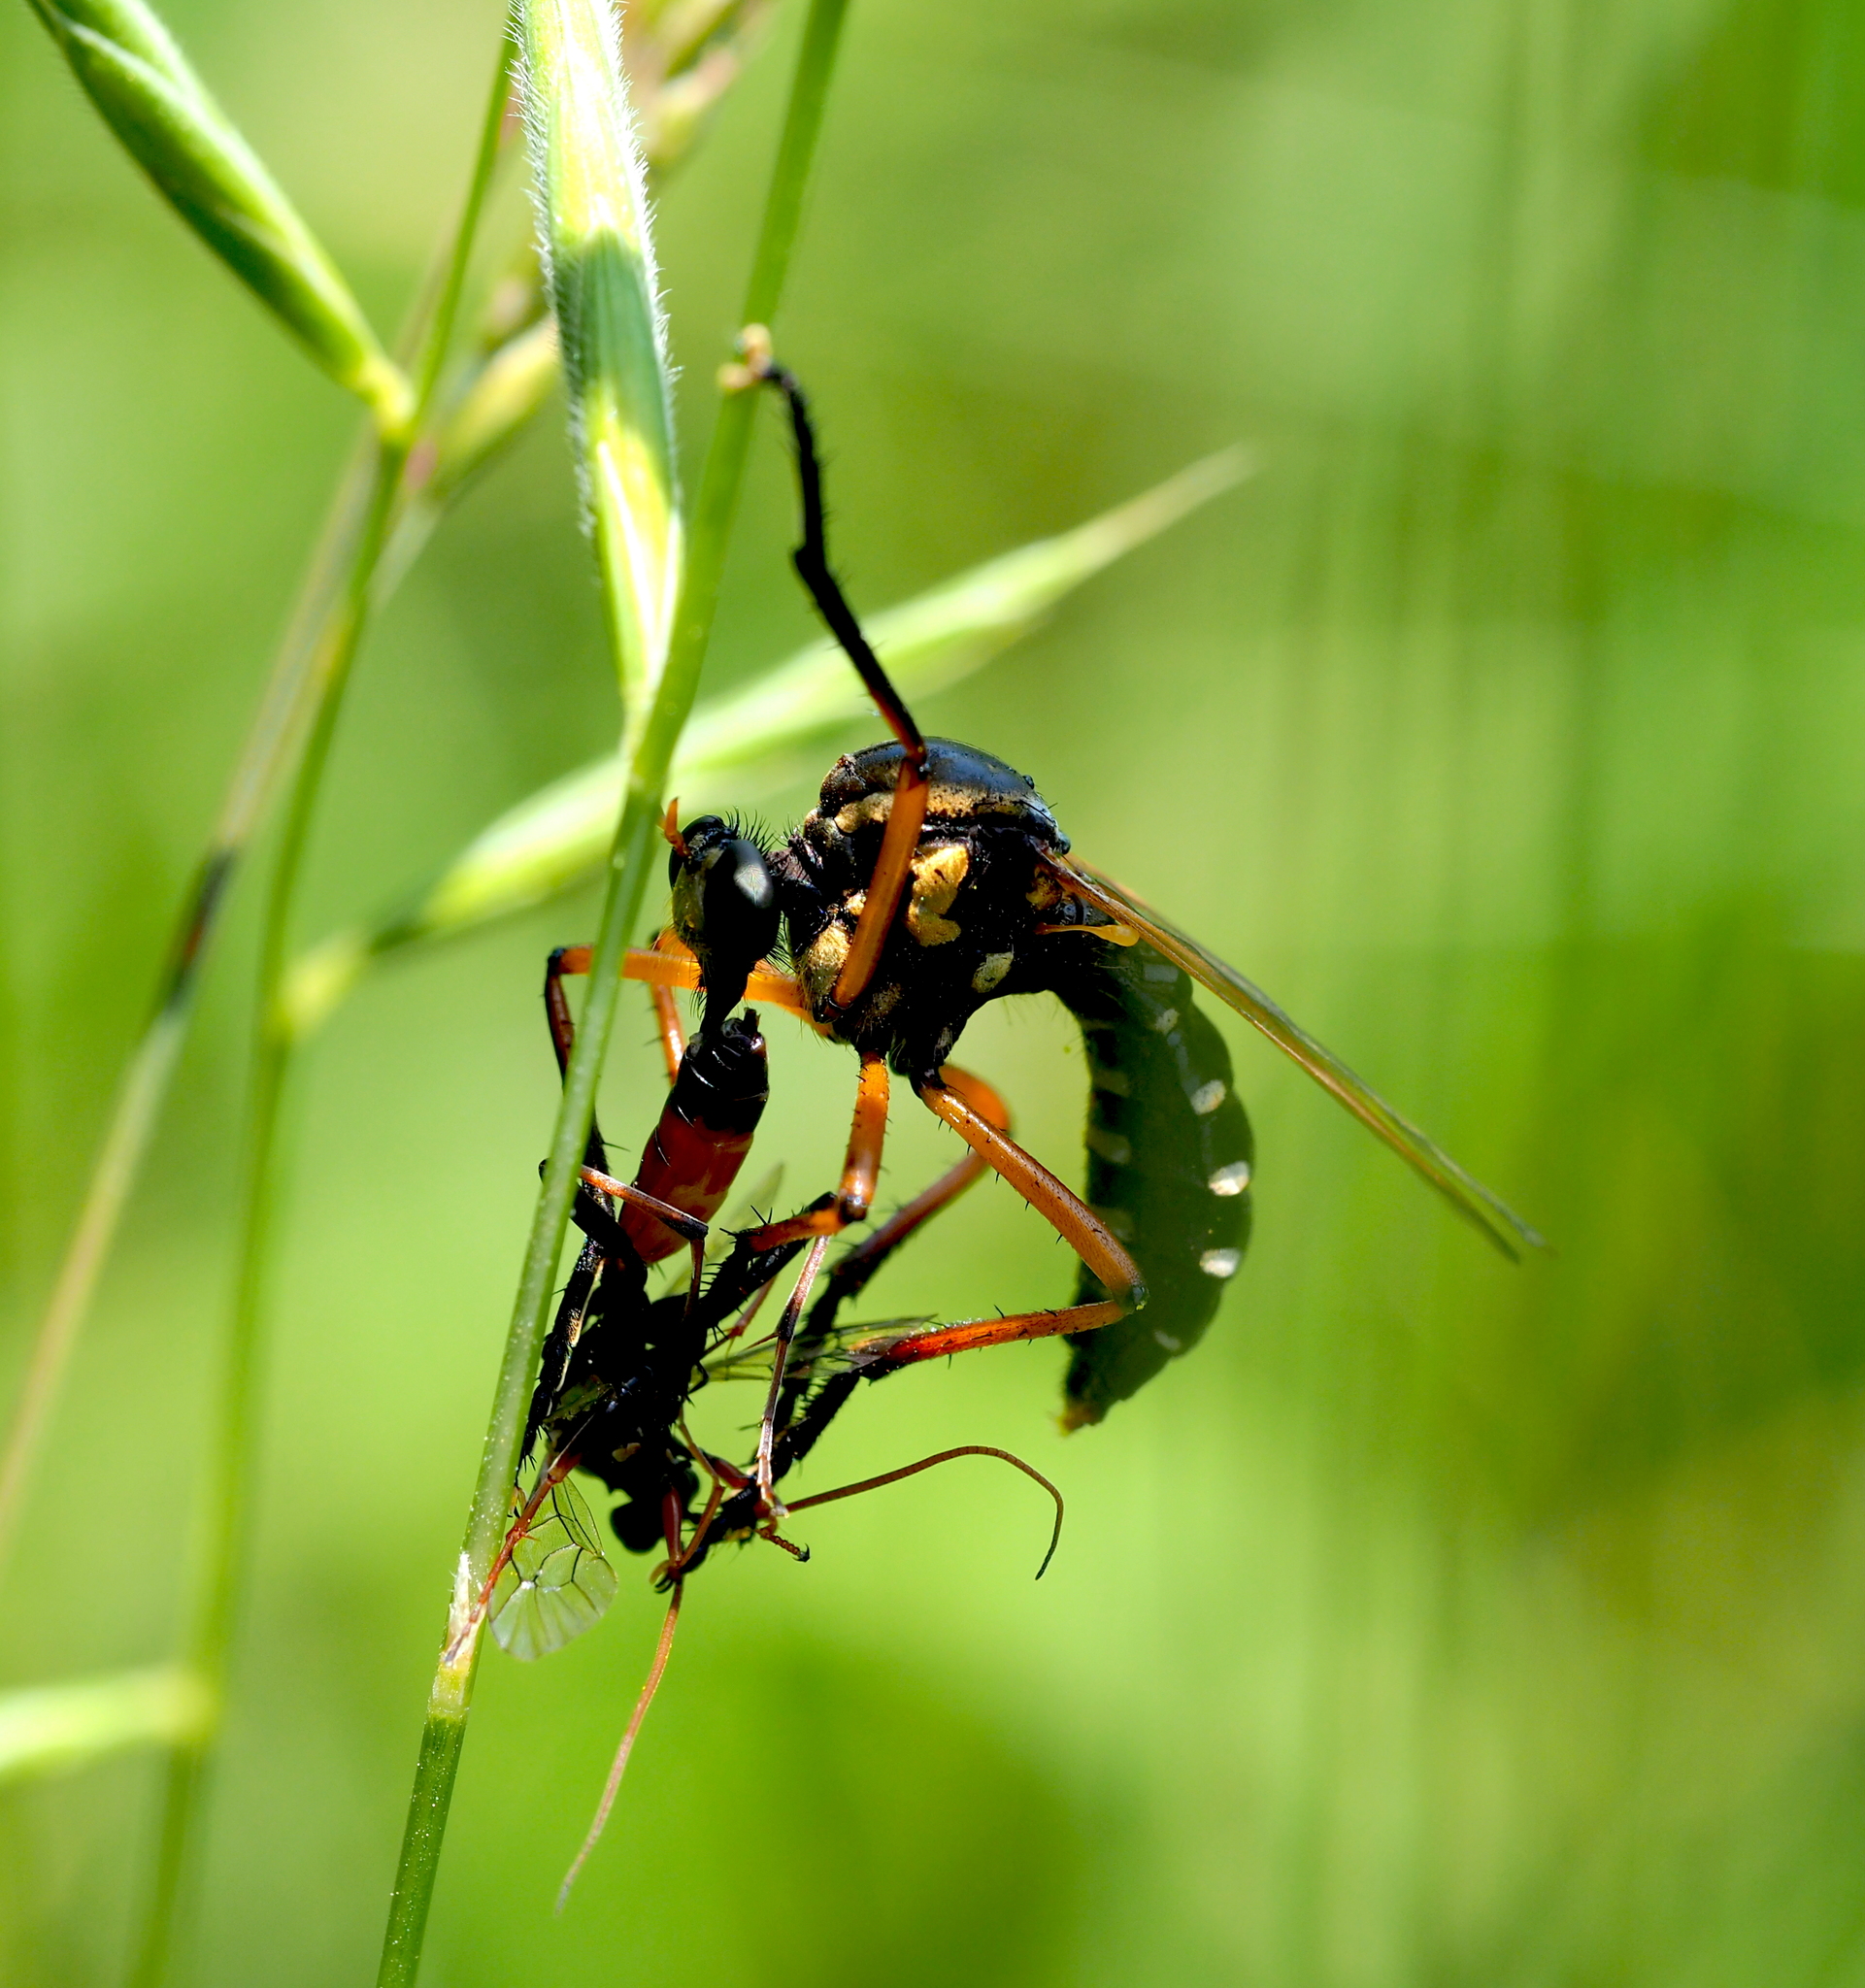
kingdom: Animalia
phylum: Arthropoda
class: Insecta
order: Diptera
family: Asilidae
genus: Molobratia
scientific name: Molobratia teutona
